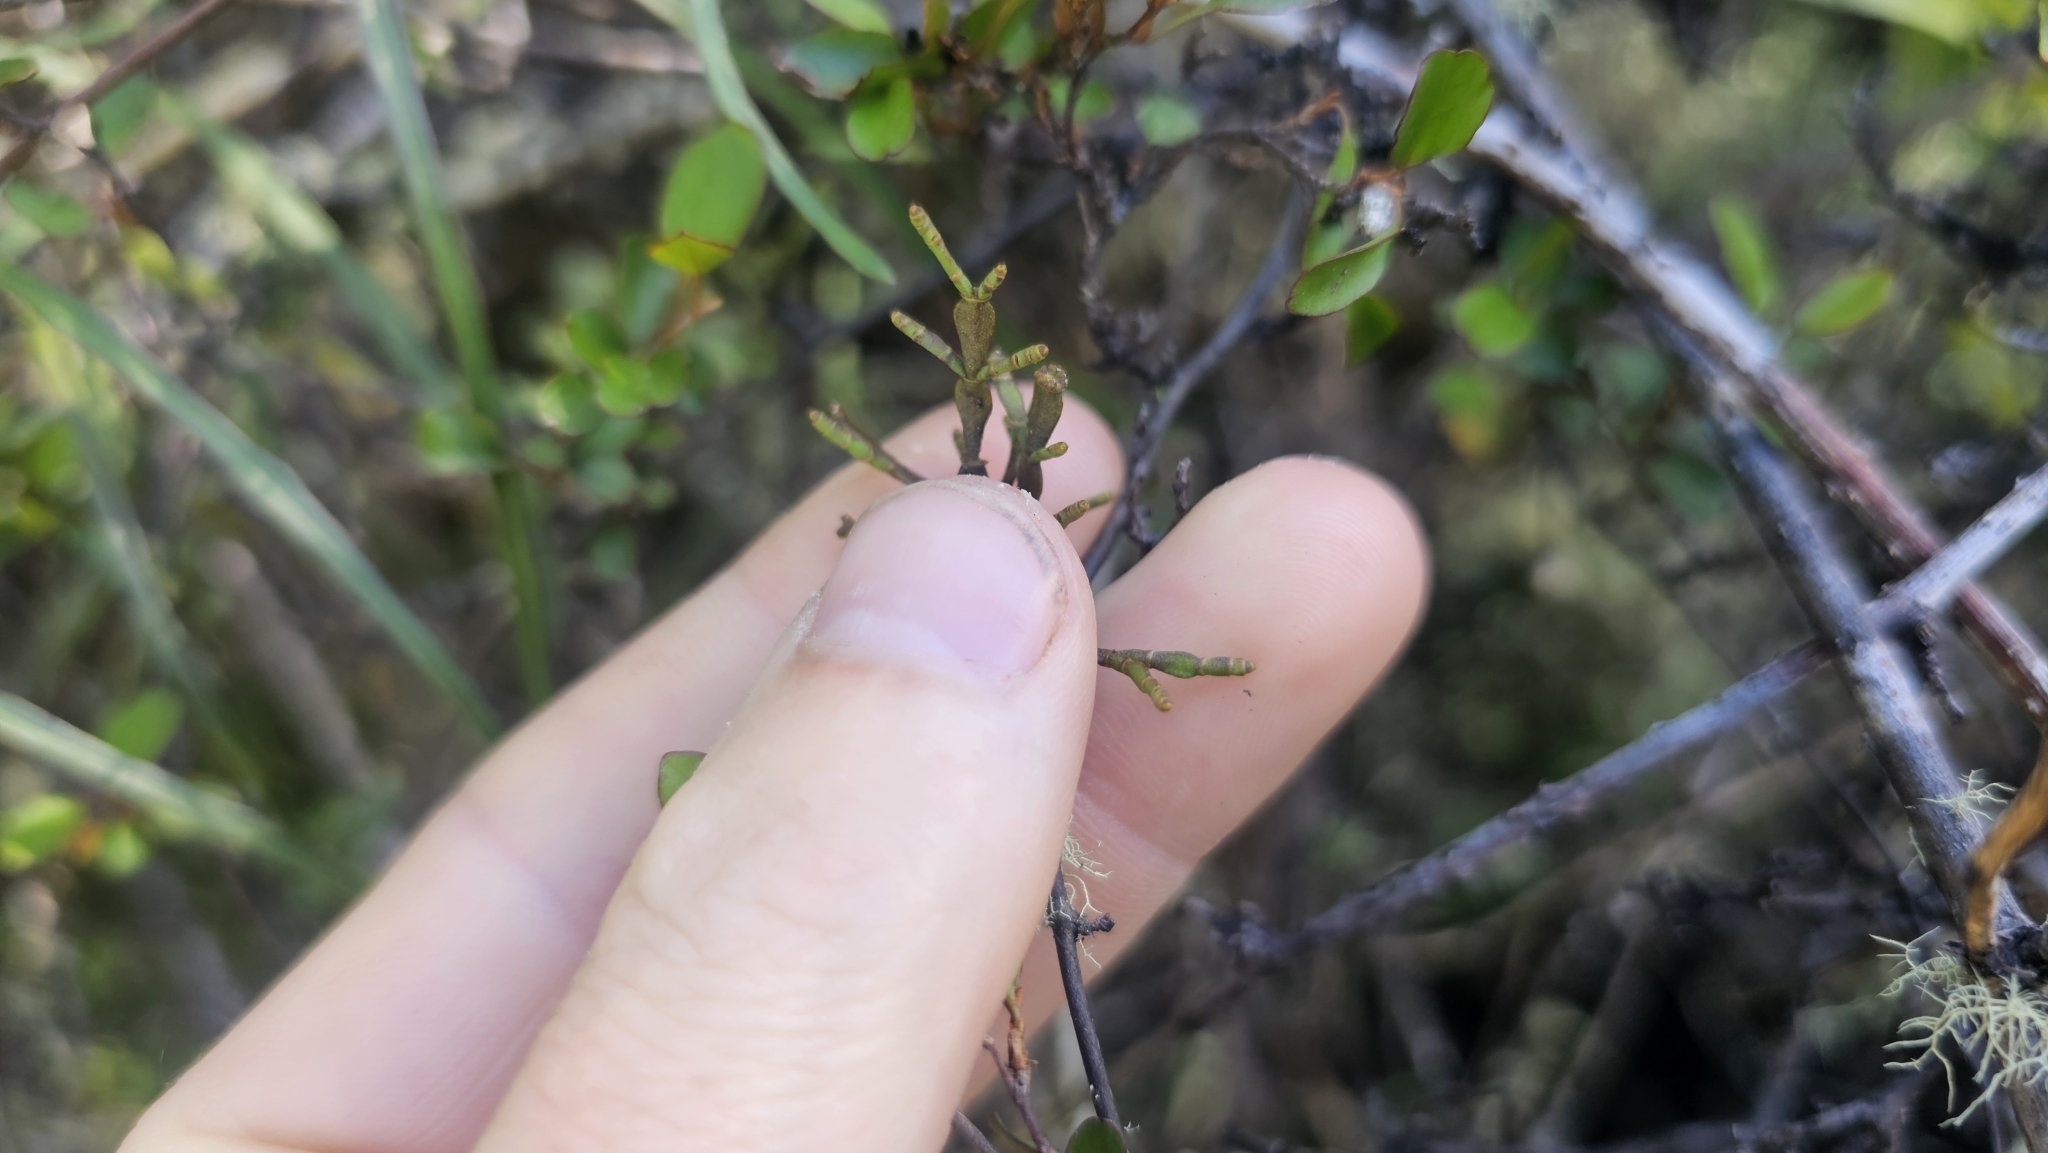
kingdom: Plantae
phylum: Tracheophyta
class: Magnoliopsida
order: Santalales
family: Viscaceae
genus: Korthalsella
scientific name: Korthalsella clavata
